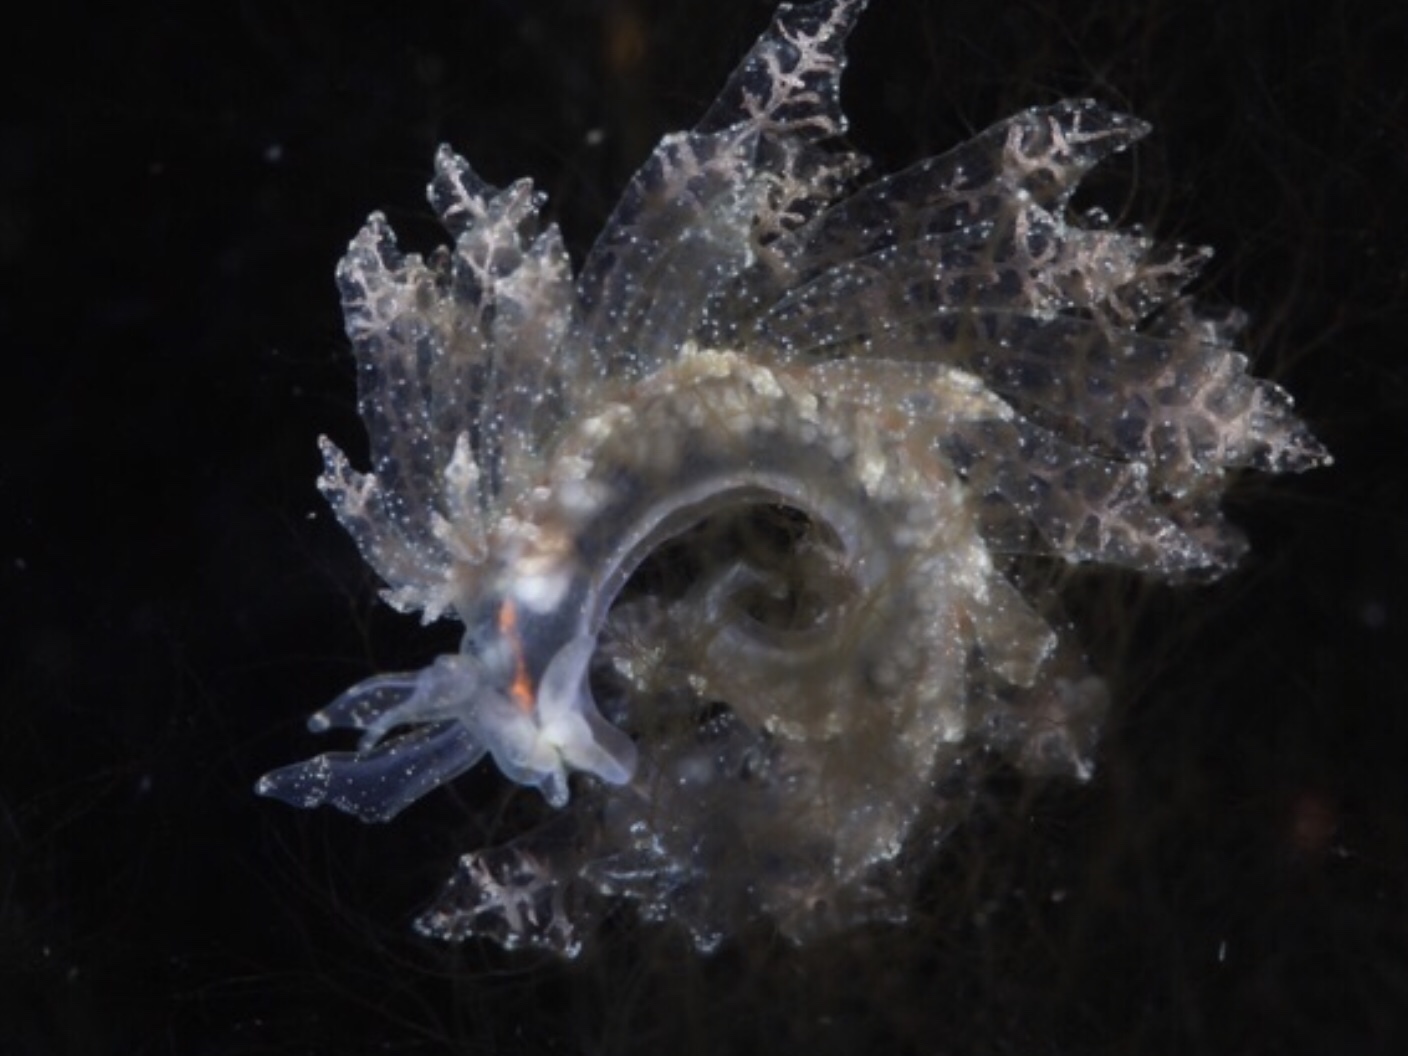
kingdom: Animalia
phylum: Mollusca
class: Gastropoda
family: Hermaeidae
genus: Hermaea
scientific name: Hermaea bifida
